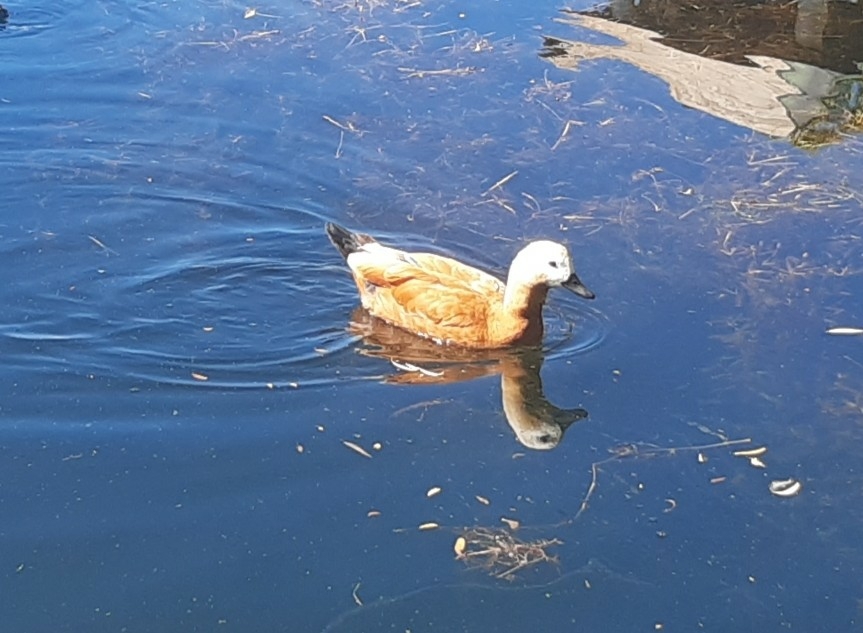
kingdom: Animalia
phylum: Chordata
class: Aves
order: Anseriformes
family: Anatidae
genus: Tadorna
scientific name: Tadorna ferruginea
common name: Ruddy shelduck
